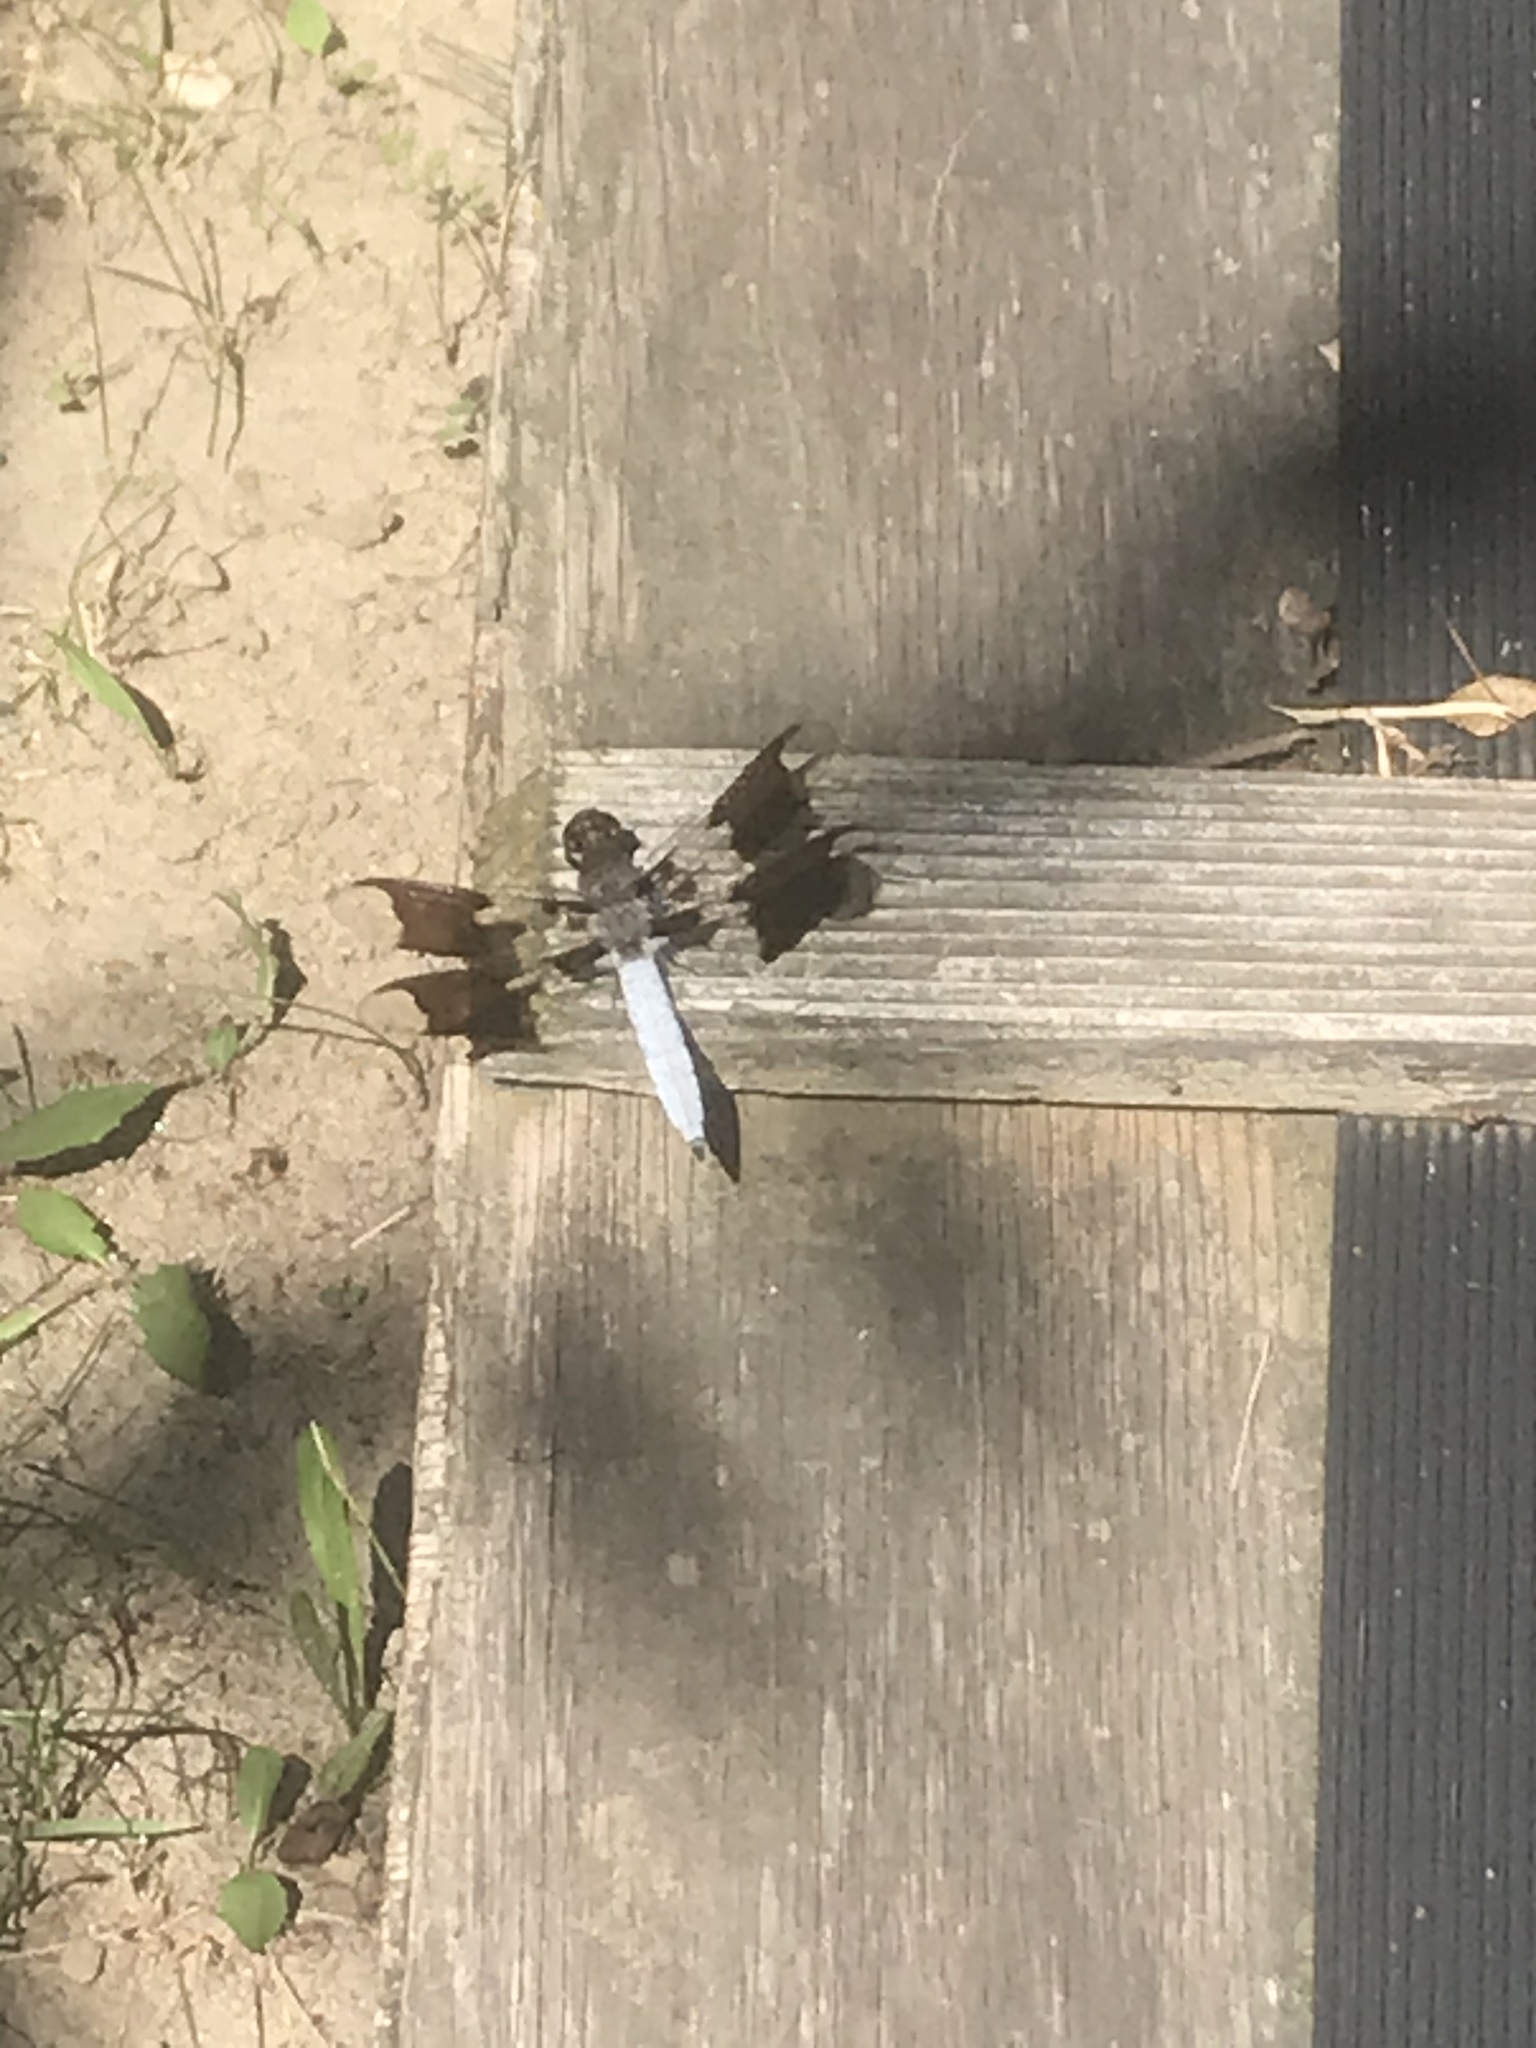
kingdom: Animalia
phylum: Arthropoda
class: Insecta
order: Odonata
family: Libellulidae
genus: Plathemis
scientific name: Plathemis lydia
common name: Common whitetail
